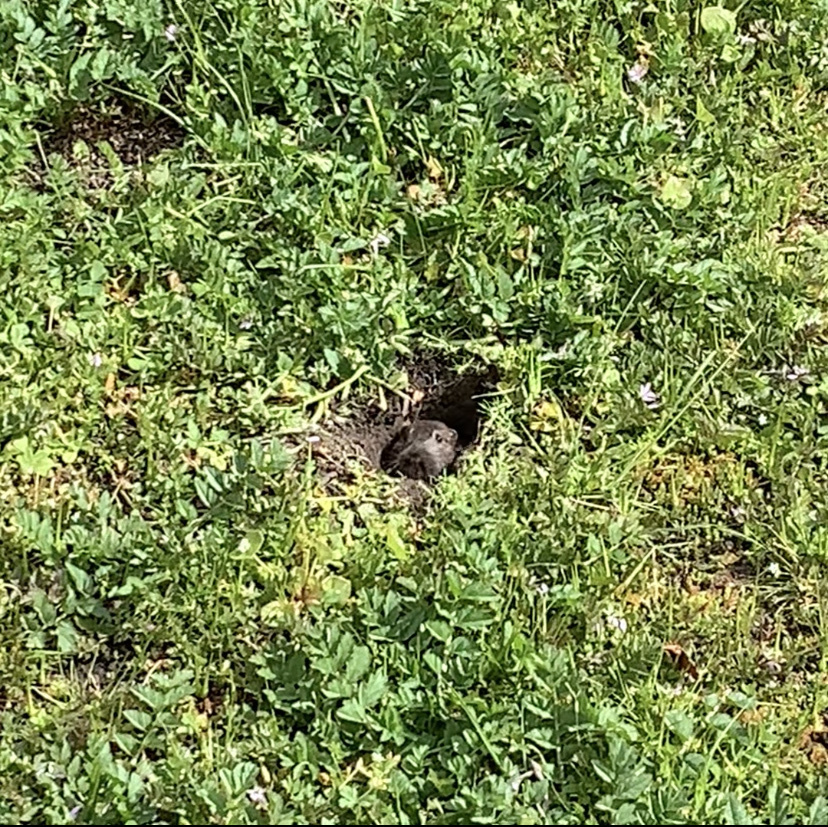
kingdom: Animalia
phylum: Chordata
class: Mammalia
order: Rodentia
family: Geomyidae
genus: Thomomys
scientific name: Thomomys bottae
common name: Botta's pocket gopher
